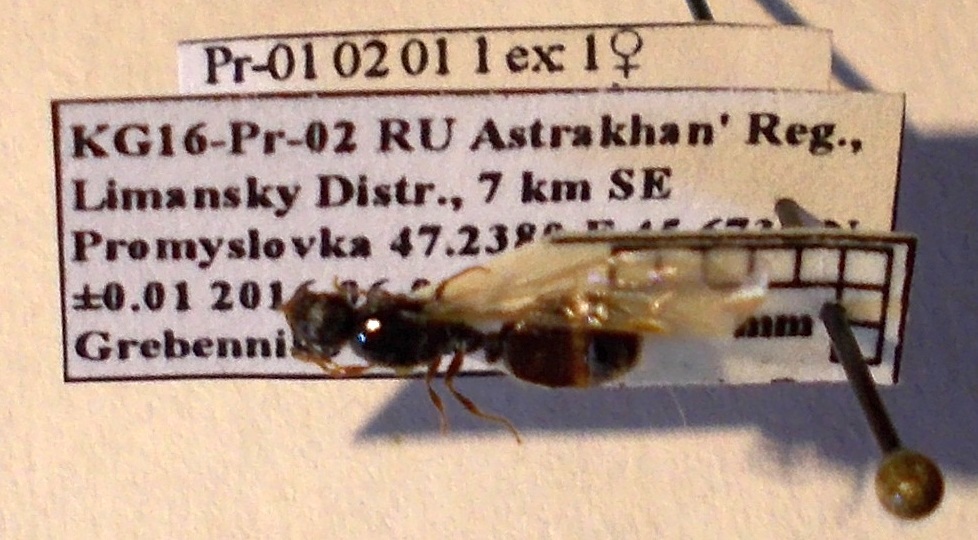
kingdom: Animalia
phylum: Arthropoda
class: Insecta
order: Hymenoptera
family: Formicidae
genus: Tetramorium
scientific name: Tetramorium caespitum
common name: Pavement ant
